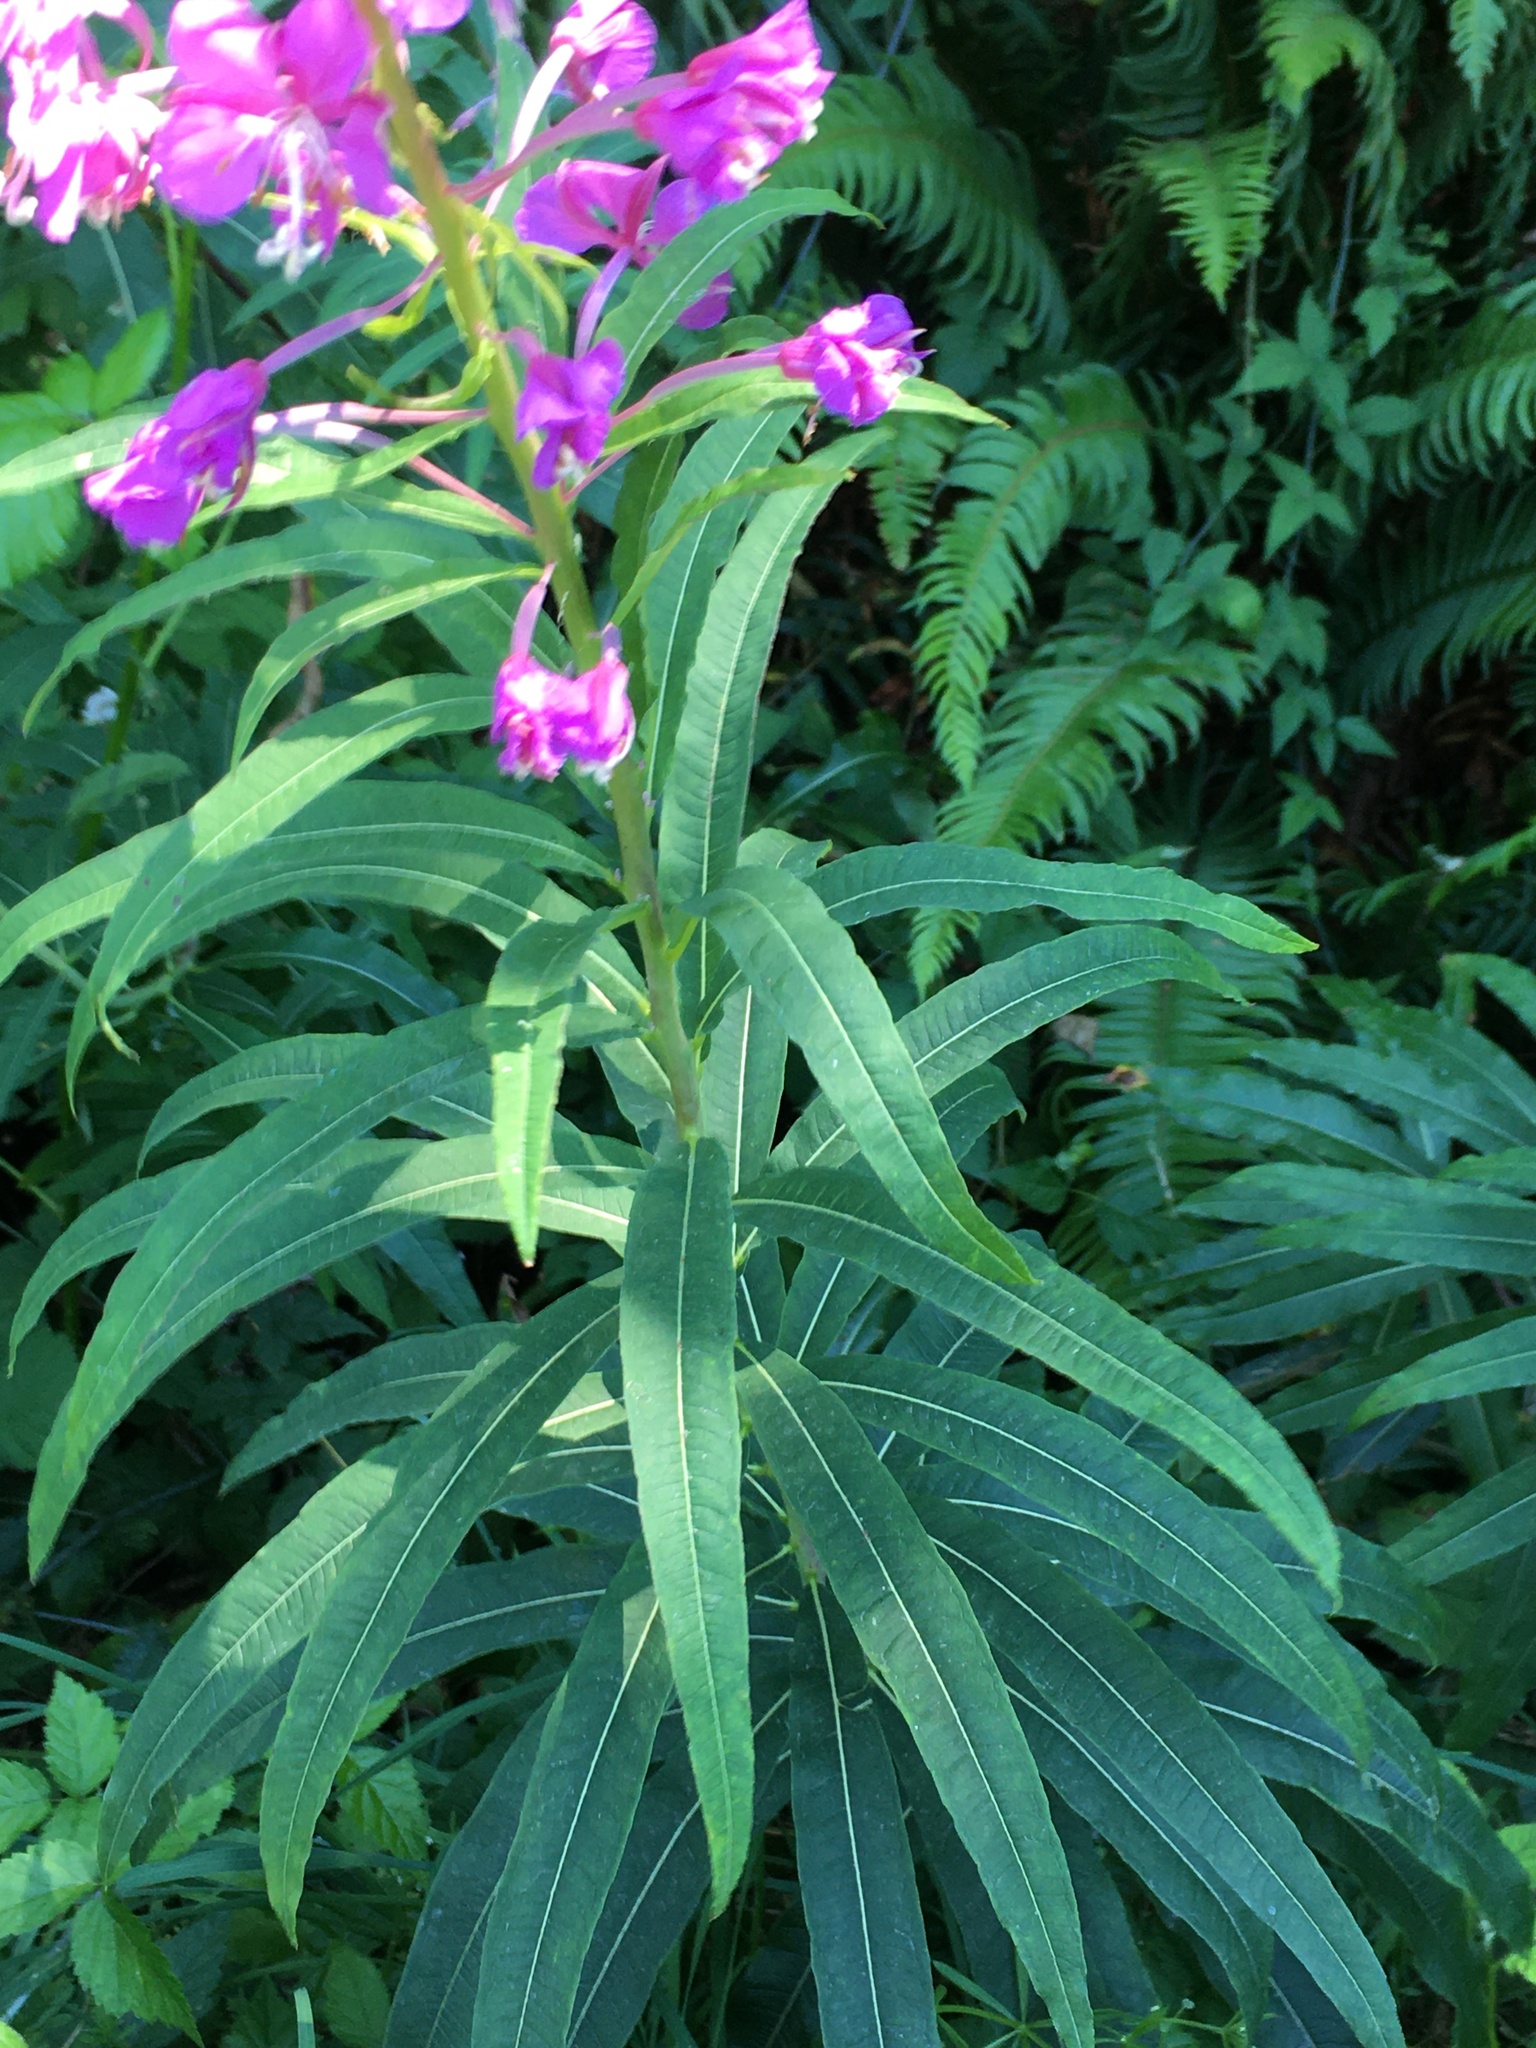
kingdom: Plantae
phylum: Tracheophyta
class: Magnoliopsida
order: Myrtales
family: Onagraceae
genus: Chamaenerion
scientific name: Chamaenerion angustifolium
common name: Fireweed
